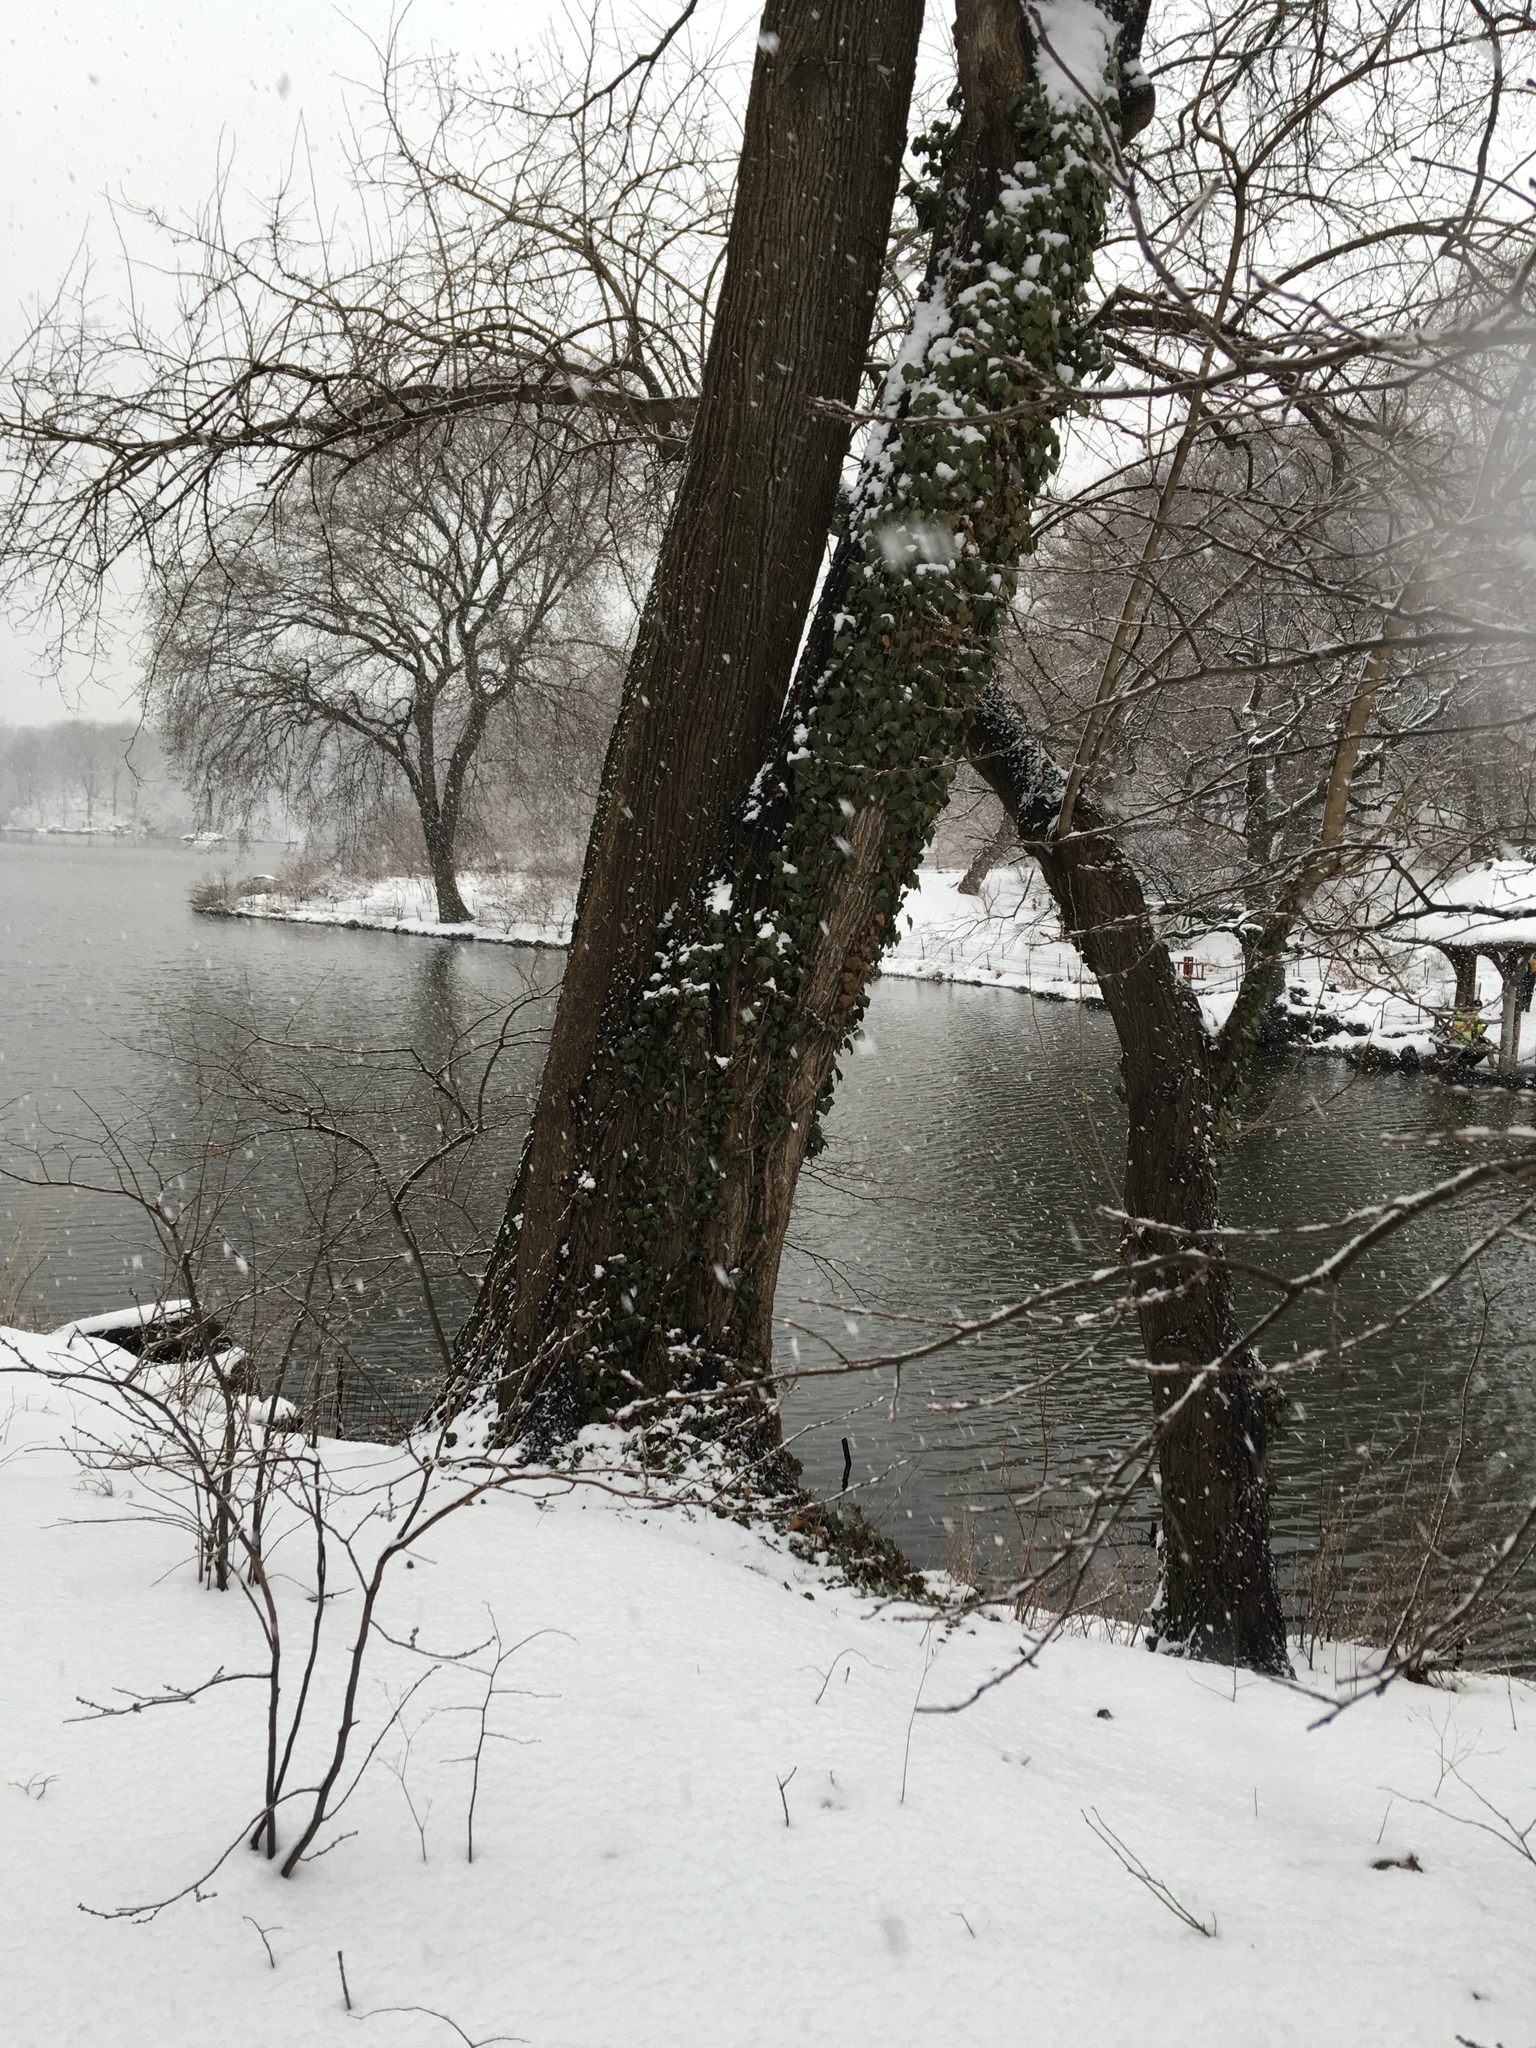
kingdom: Plantae
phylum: Tracheophyta
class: Magnoliopsida
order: Apiales
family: Araliaceae
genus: Hedera
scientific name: Hedera helix
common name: Ivy
